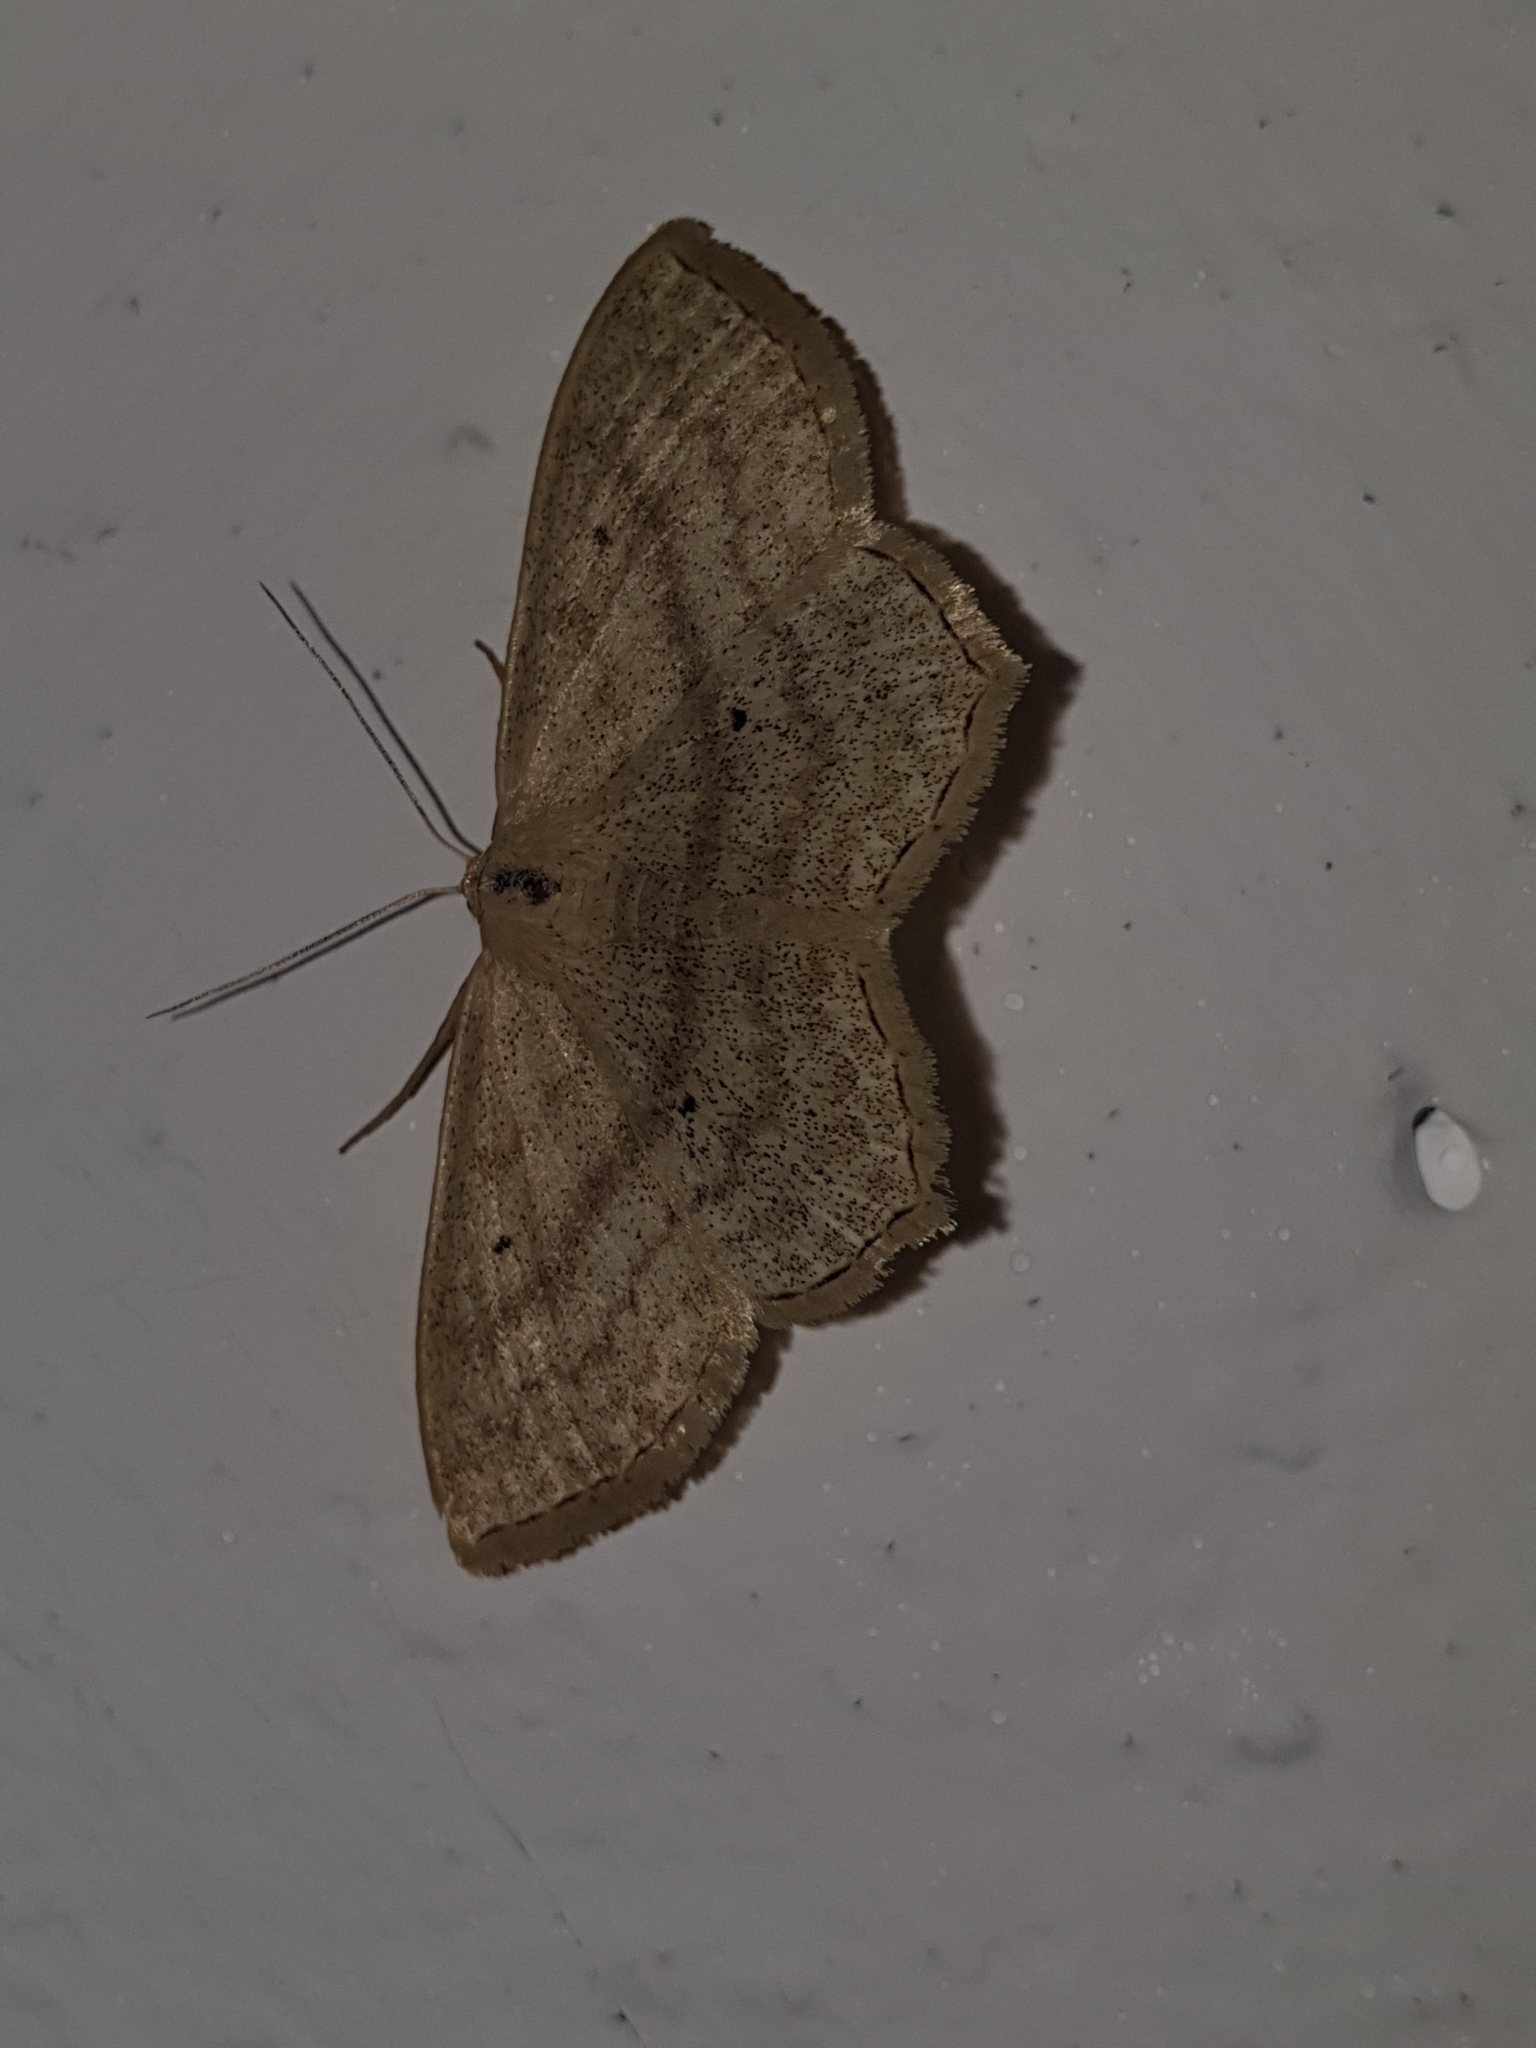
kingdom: Animalia
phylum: Arthropoda
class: Insecta
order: Lepidoptera
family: Geometridae
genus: Scopula
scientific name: Scopula nigropunctata
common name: Sub-angled wave
